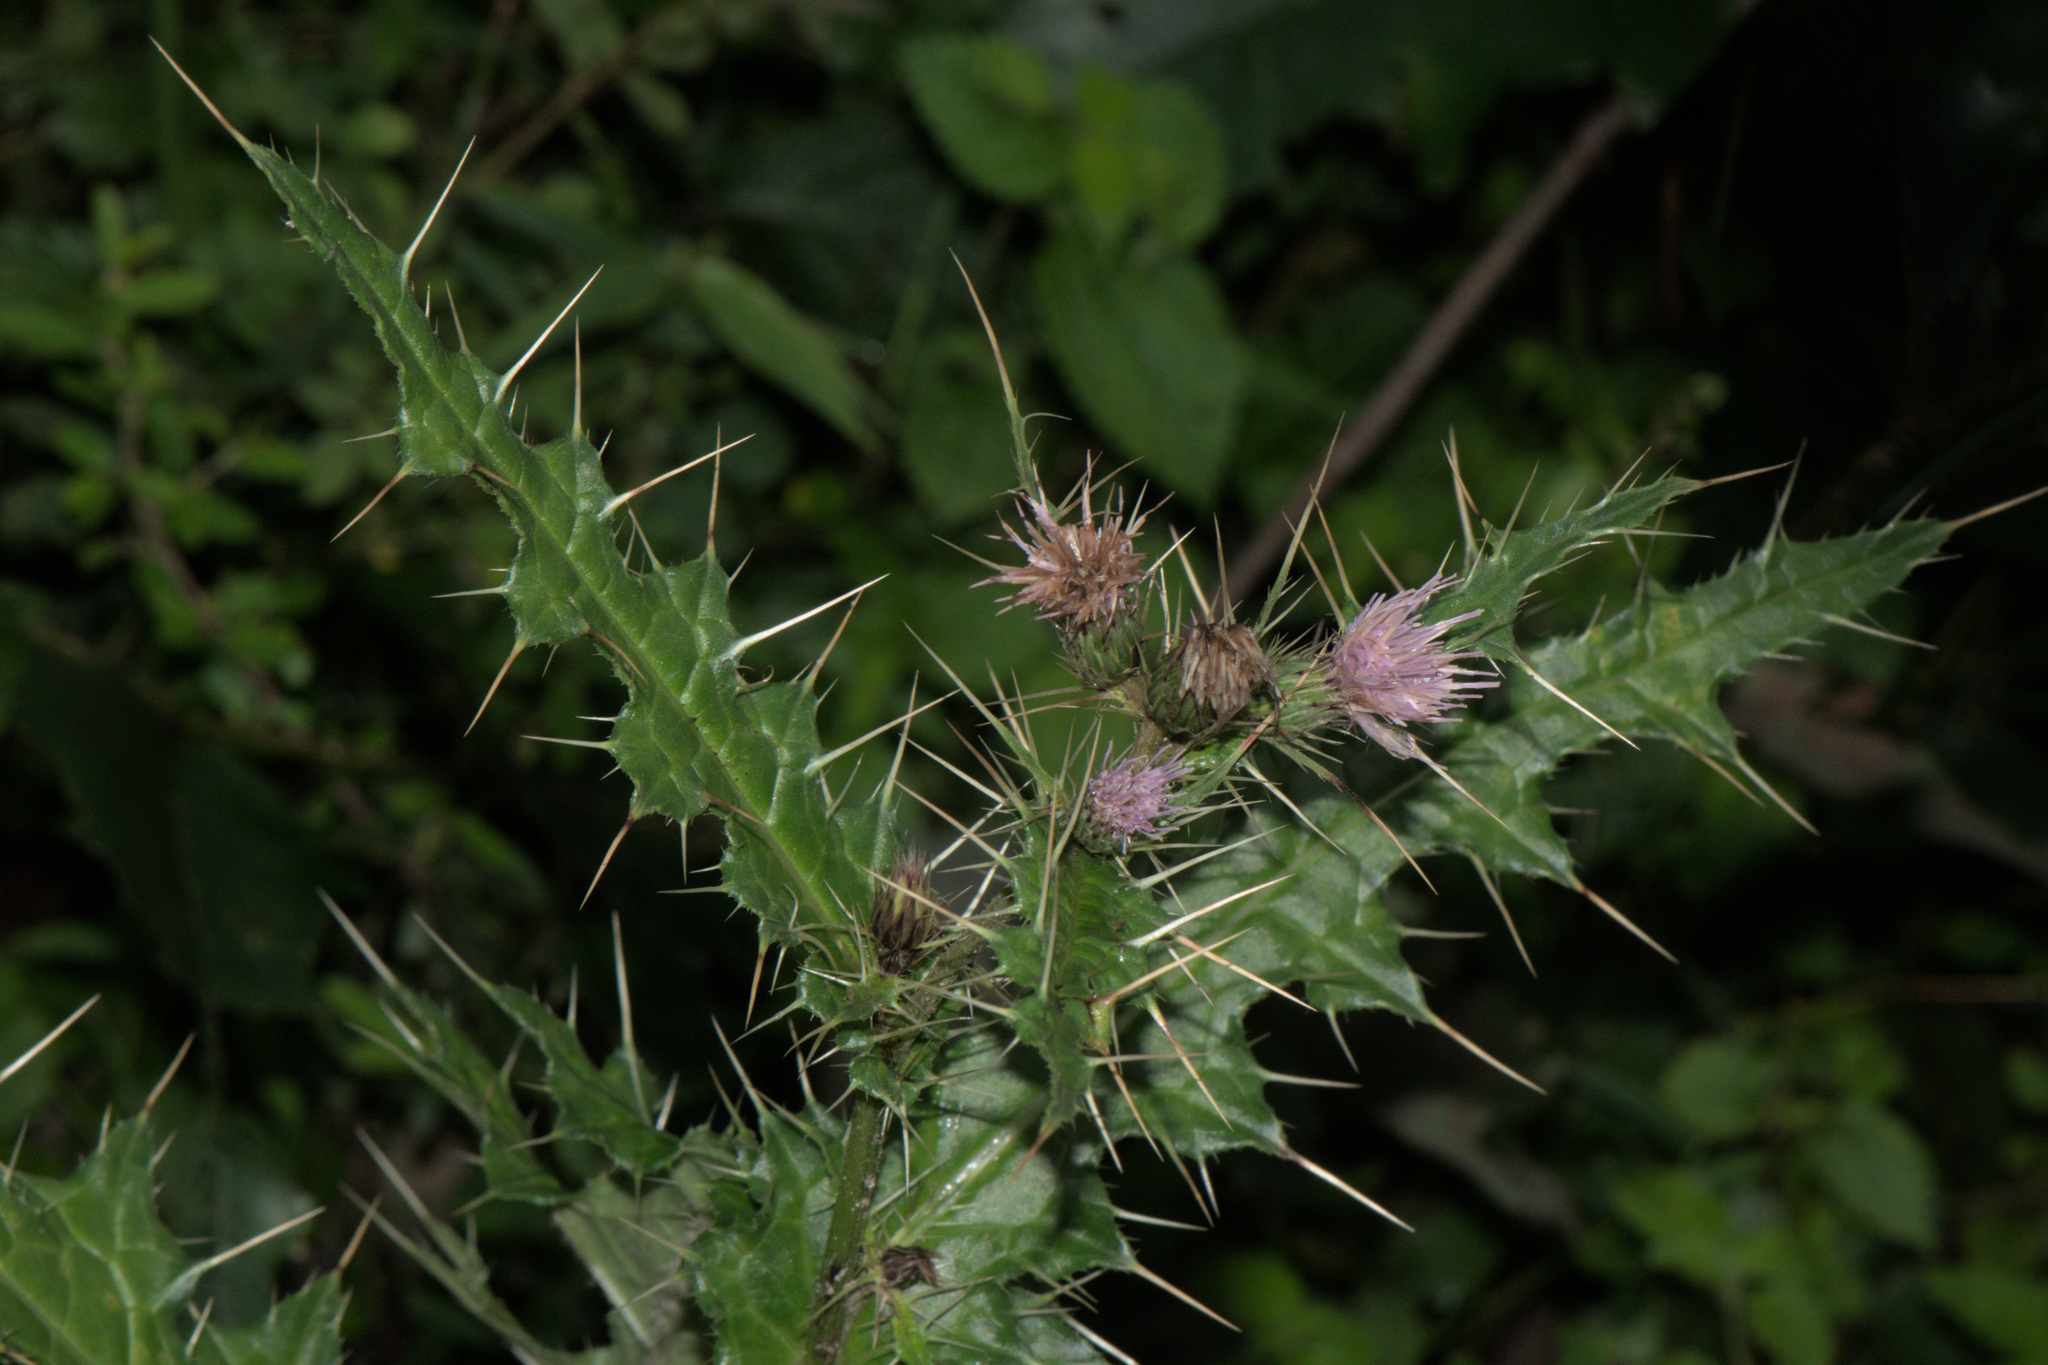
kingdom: Plantae
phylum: Tracheophyta
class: Magnoliopsida
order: Asterales
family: Asteraceae
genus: Cirsium
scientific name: Cirsium arvense
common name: Creeping thistle
